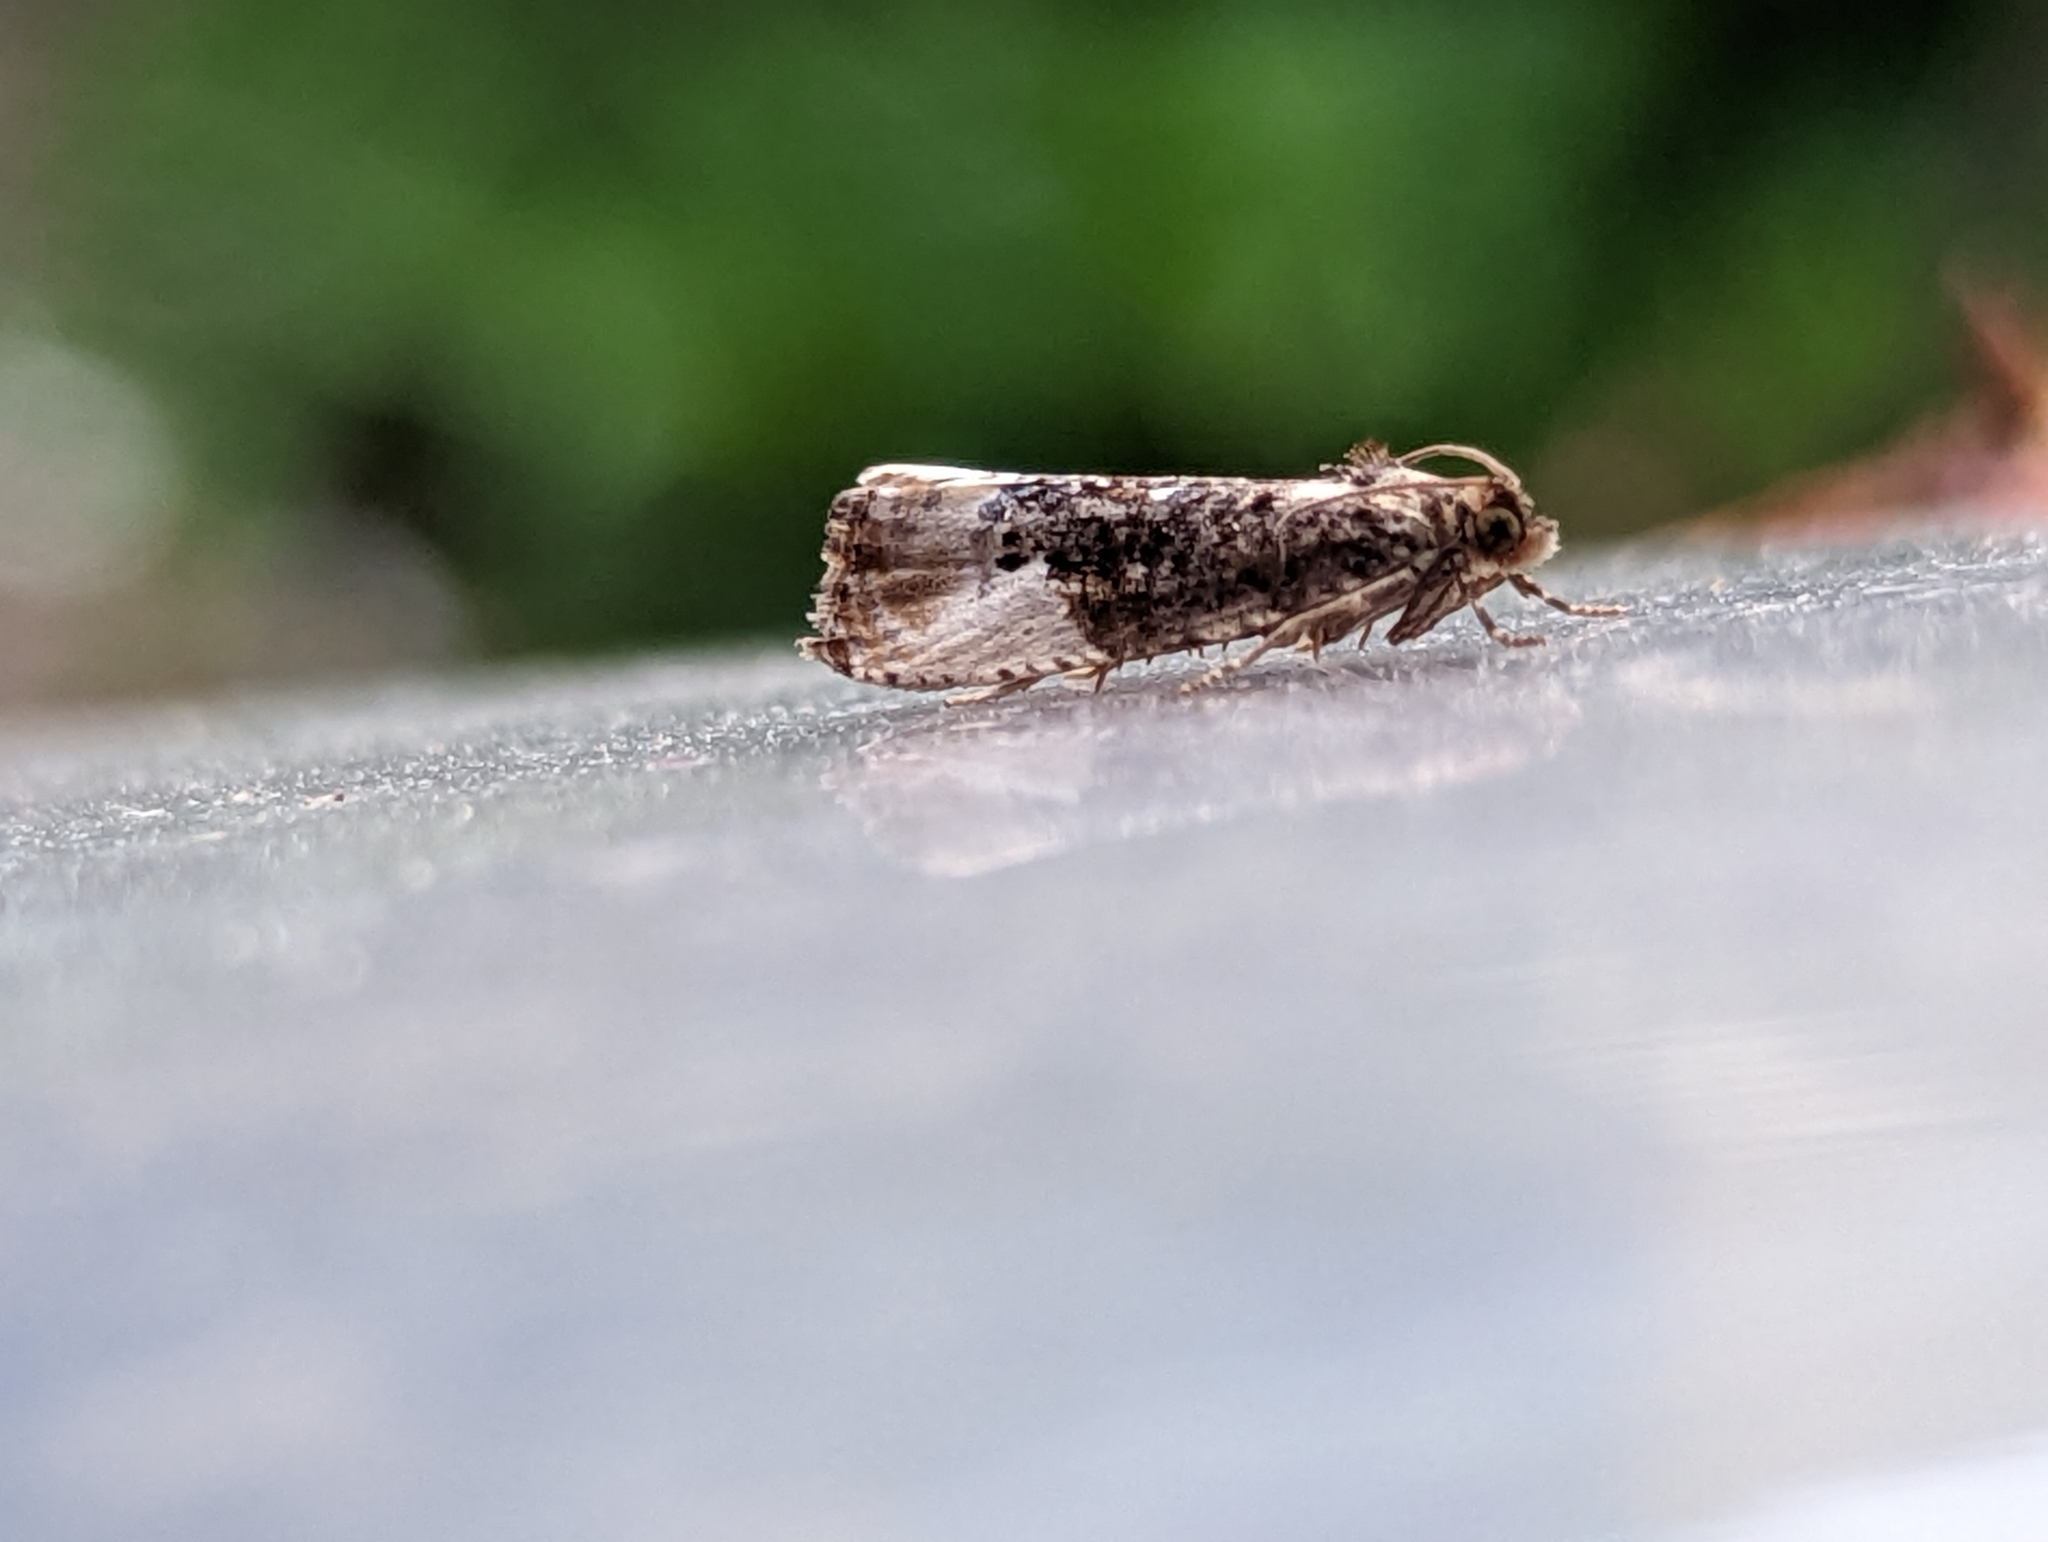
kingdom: Animalia
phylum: Arthropoda
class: Insecta
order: Lepidoptera
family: Tortricidae
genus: Hedya
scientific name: Hedya nubiferana
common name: Marbled orchard tortrix
